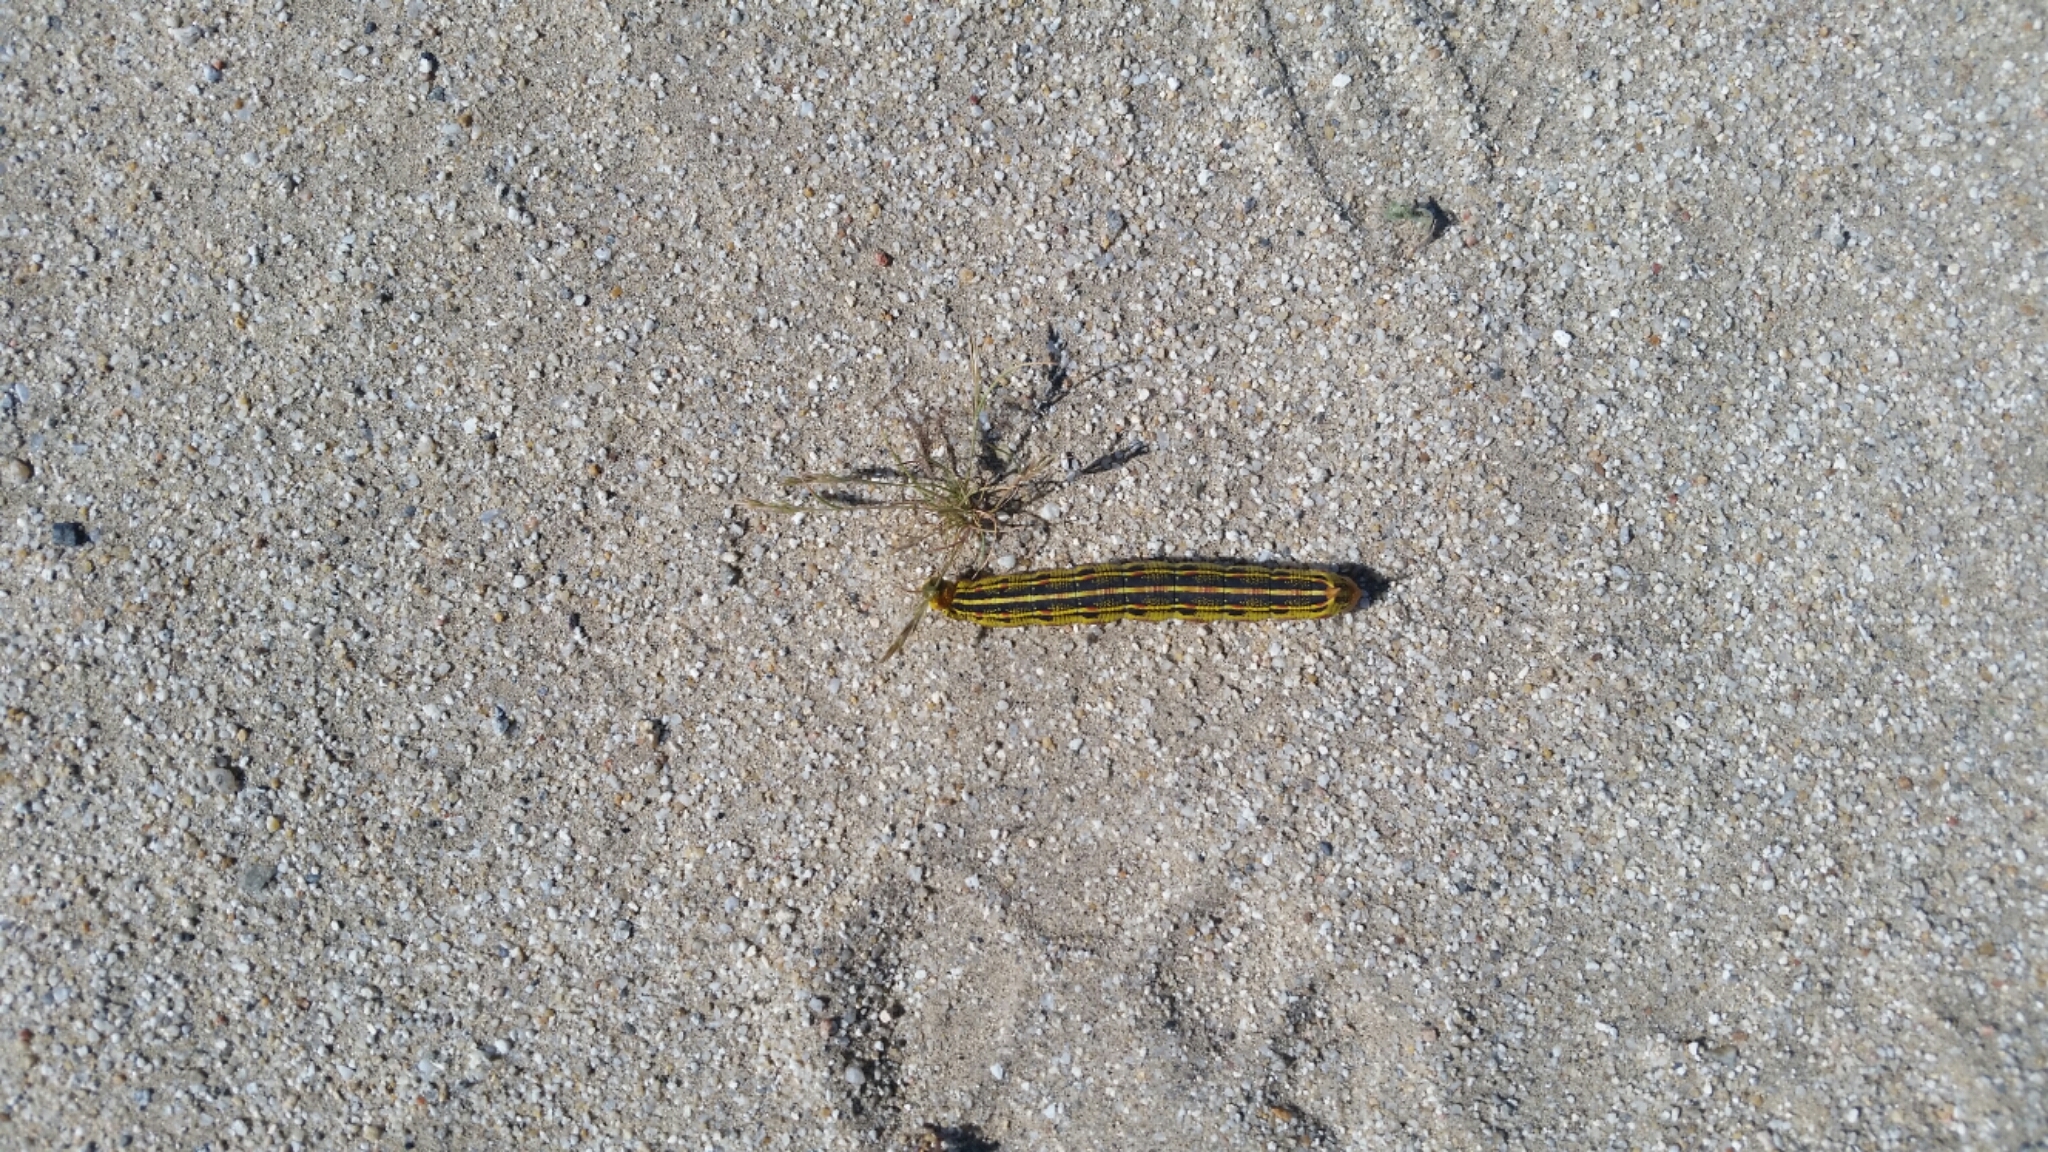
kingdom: Animalia
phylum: Arthropoda
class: Insecta
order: Lepidoptera
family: Sphingidae
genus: Hyles
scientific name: Hyles lineata
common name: White-lined sphinx
